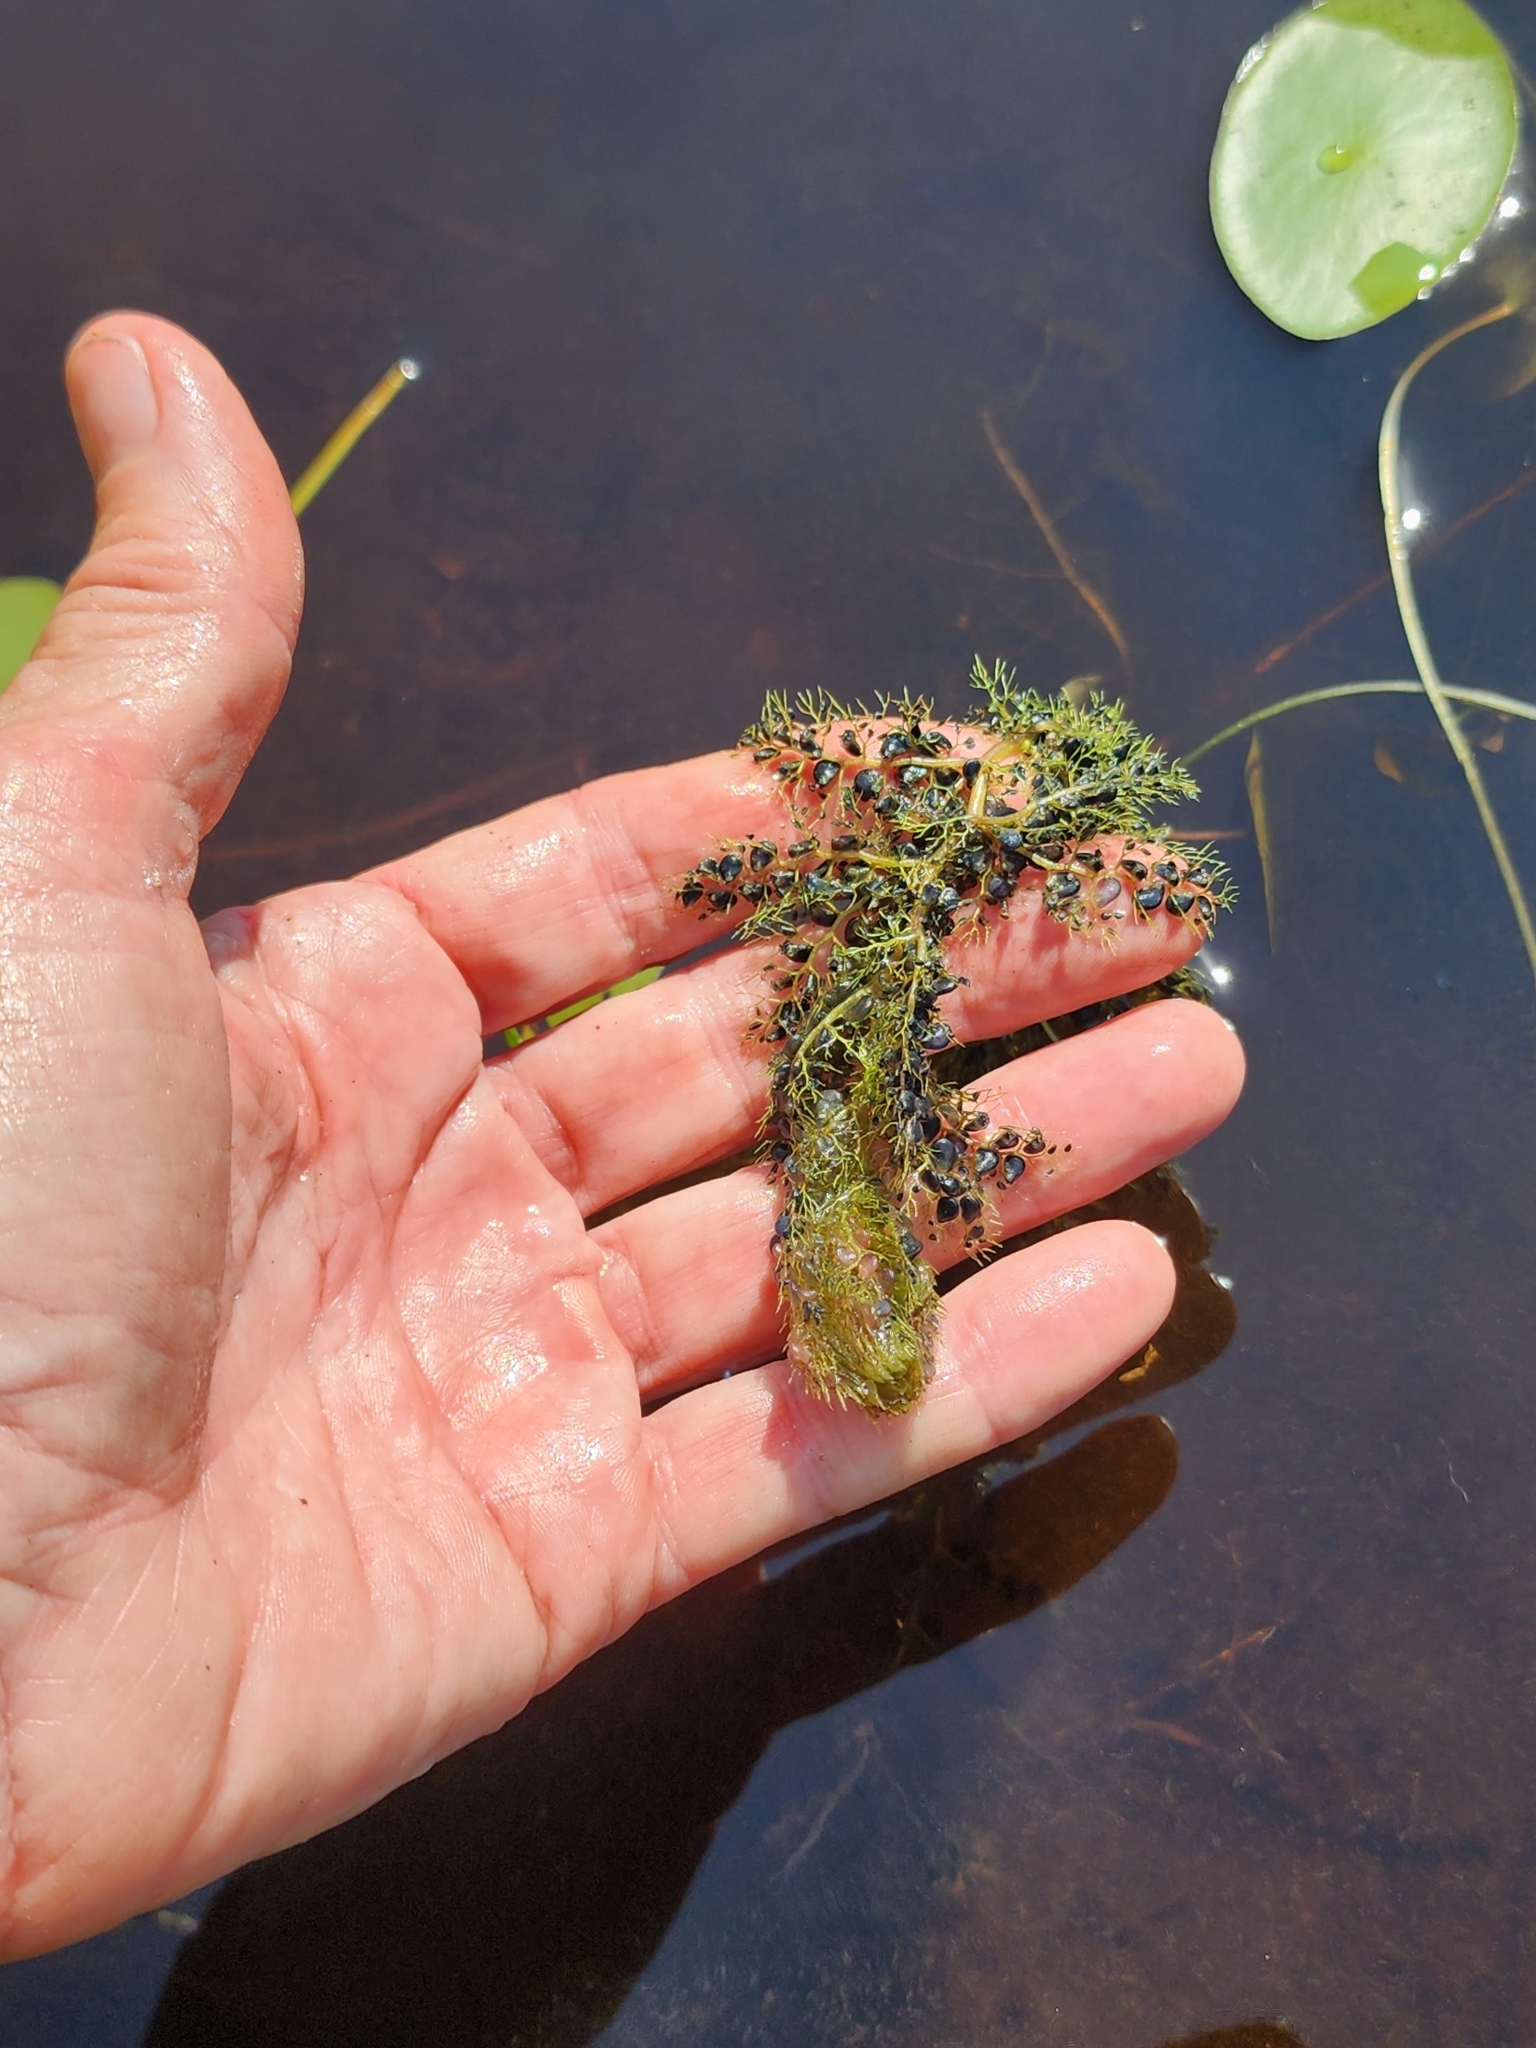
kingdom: Plantae
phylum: Tracheophyta
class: Magnoliopsida
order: Lamiales
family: Lentibulariaceae
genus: Utricularia
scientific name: Utricularia macrorhiza
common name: Common bladderwort
